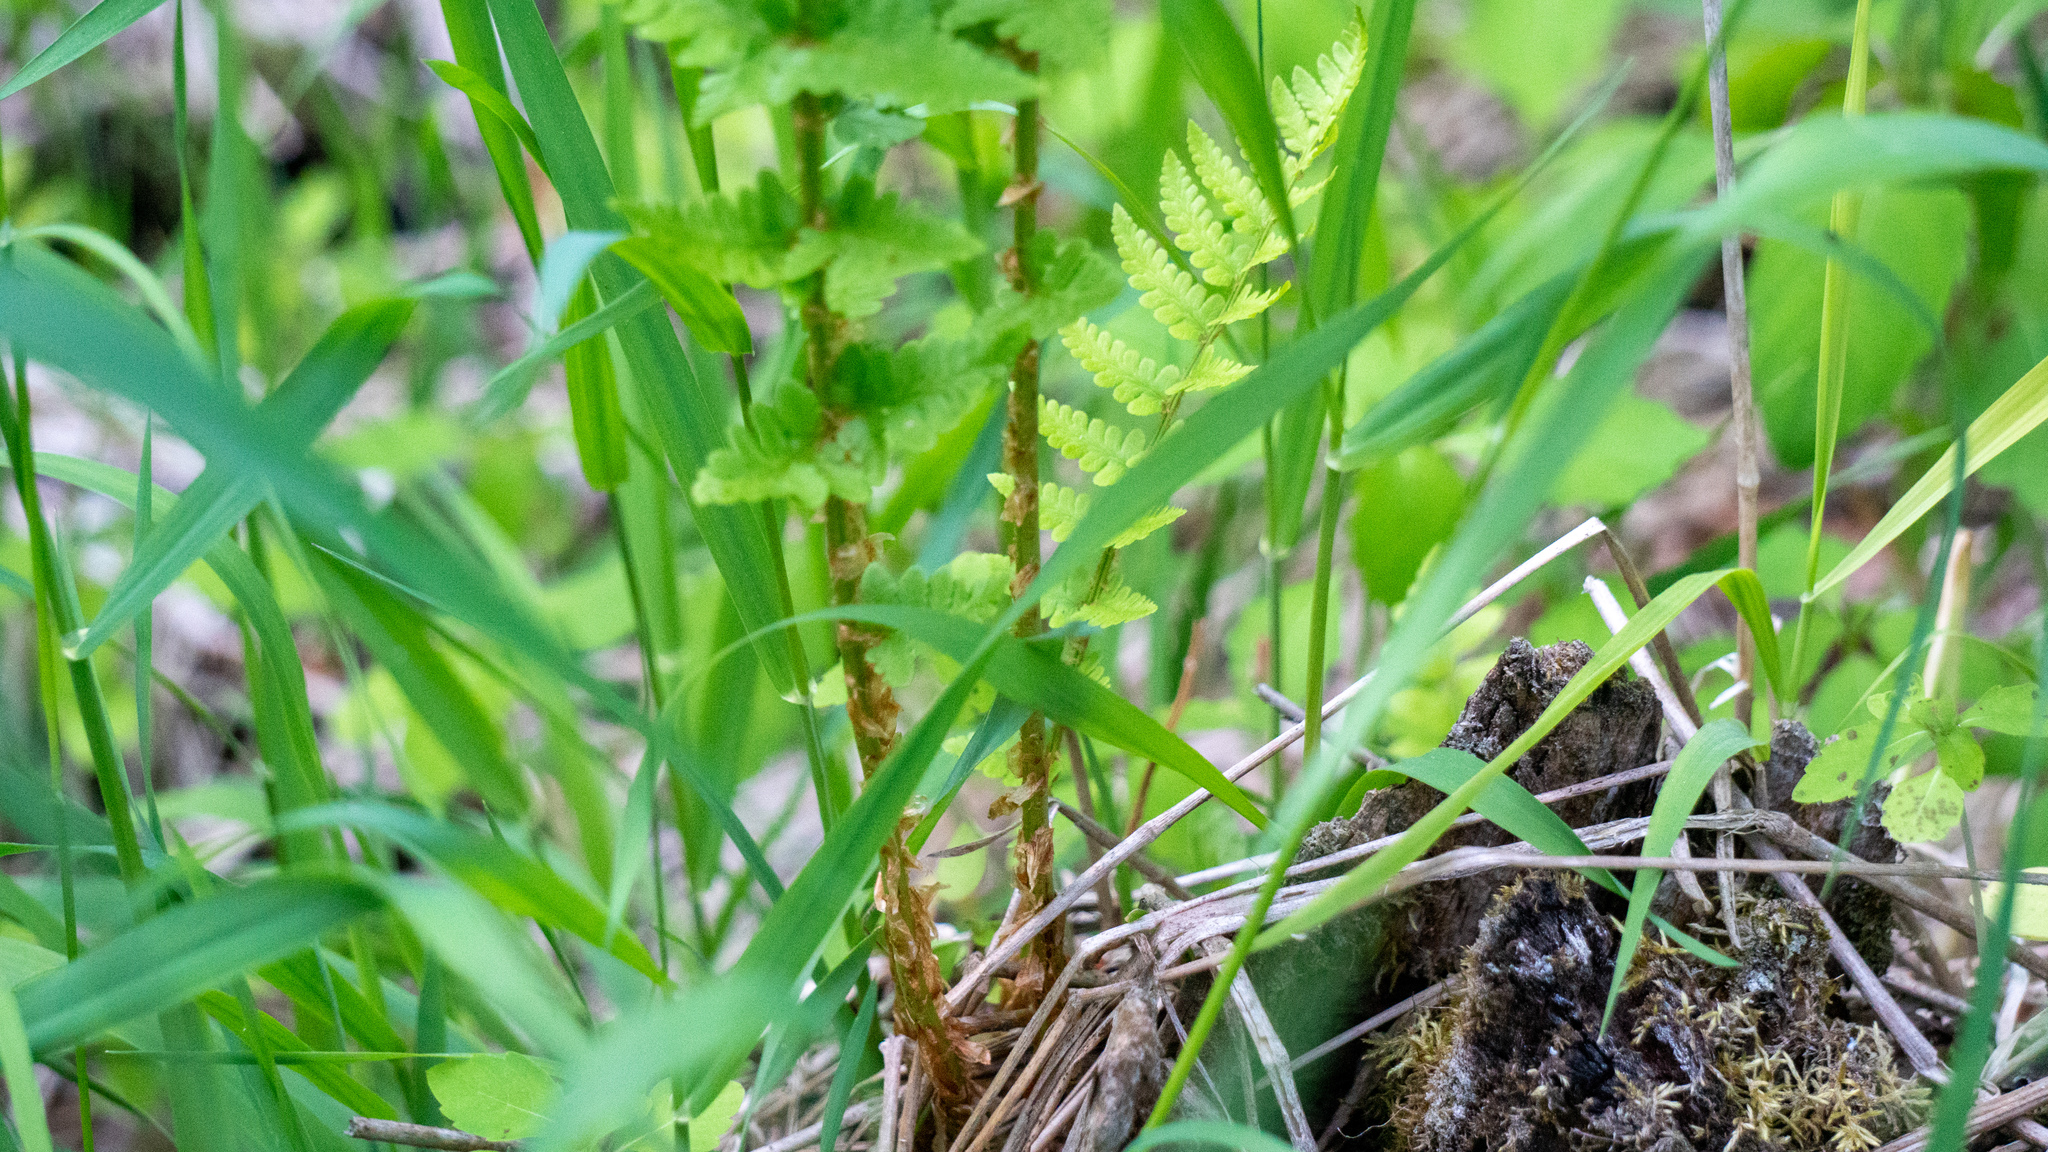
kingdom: Plantae
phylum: Tracheophyta
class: Polypodiopsida
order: Polypodiales
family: Dryopteridaceae
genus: Dryopteris
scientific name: Dryopteris cristata
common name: Crested wood fern
